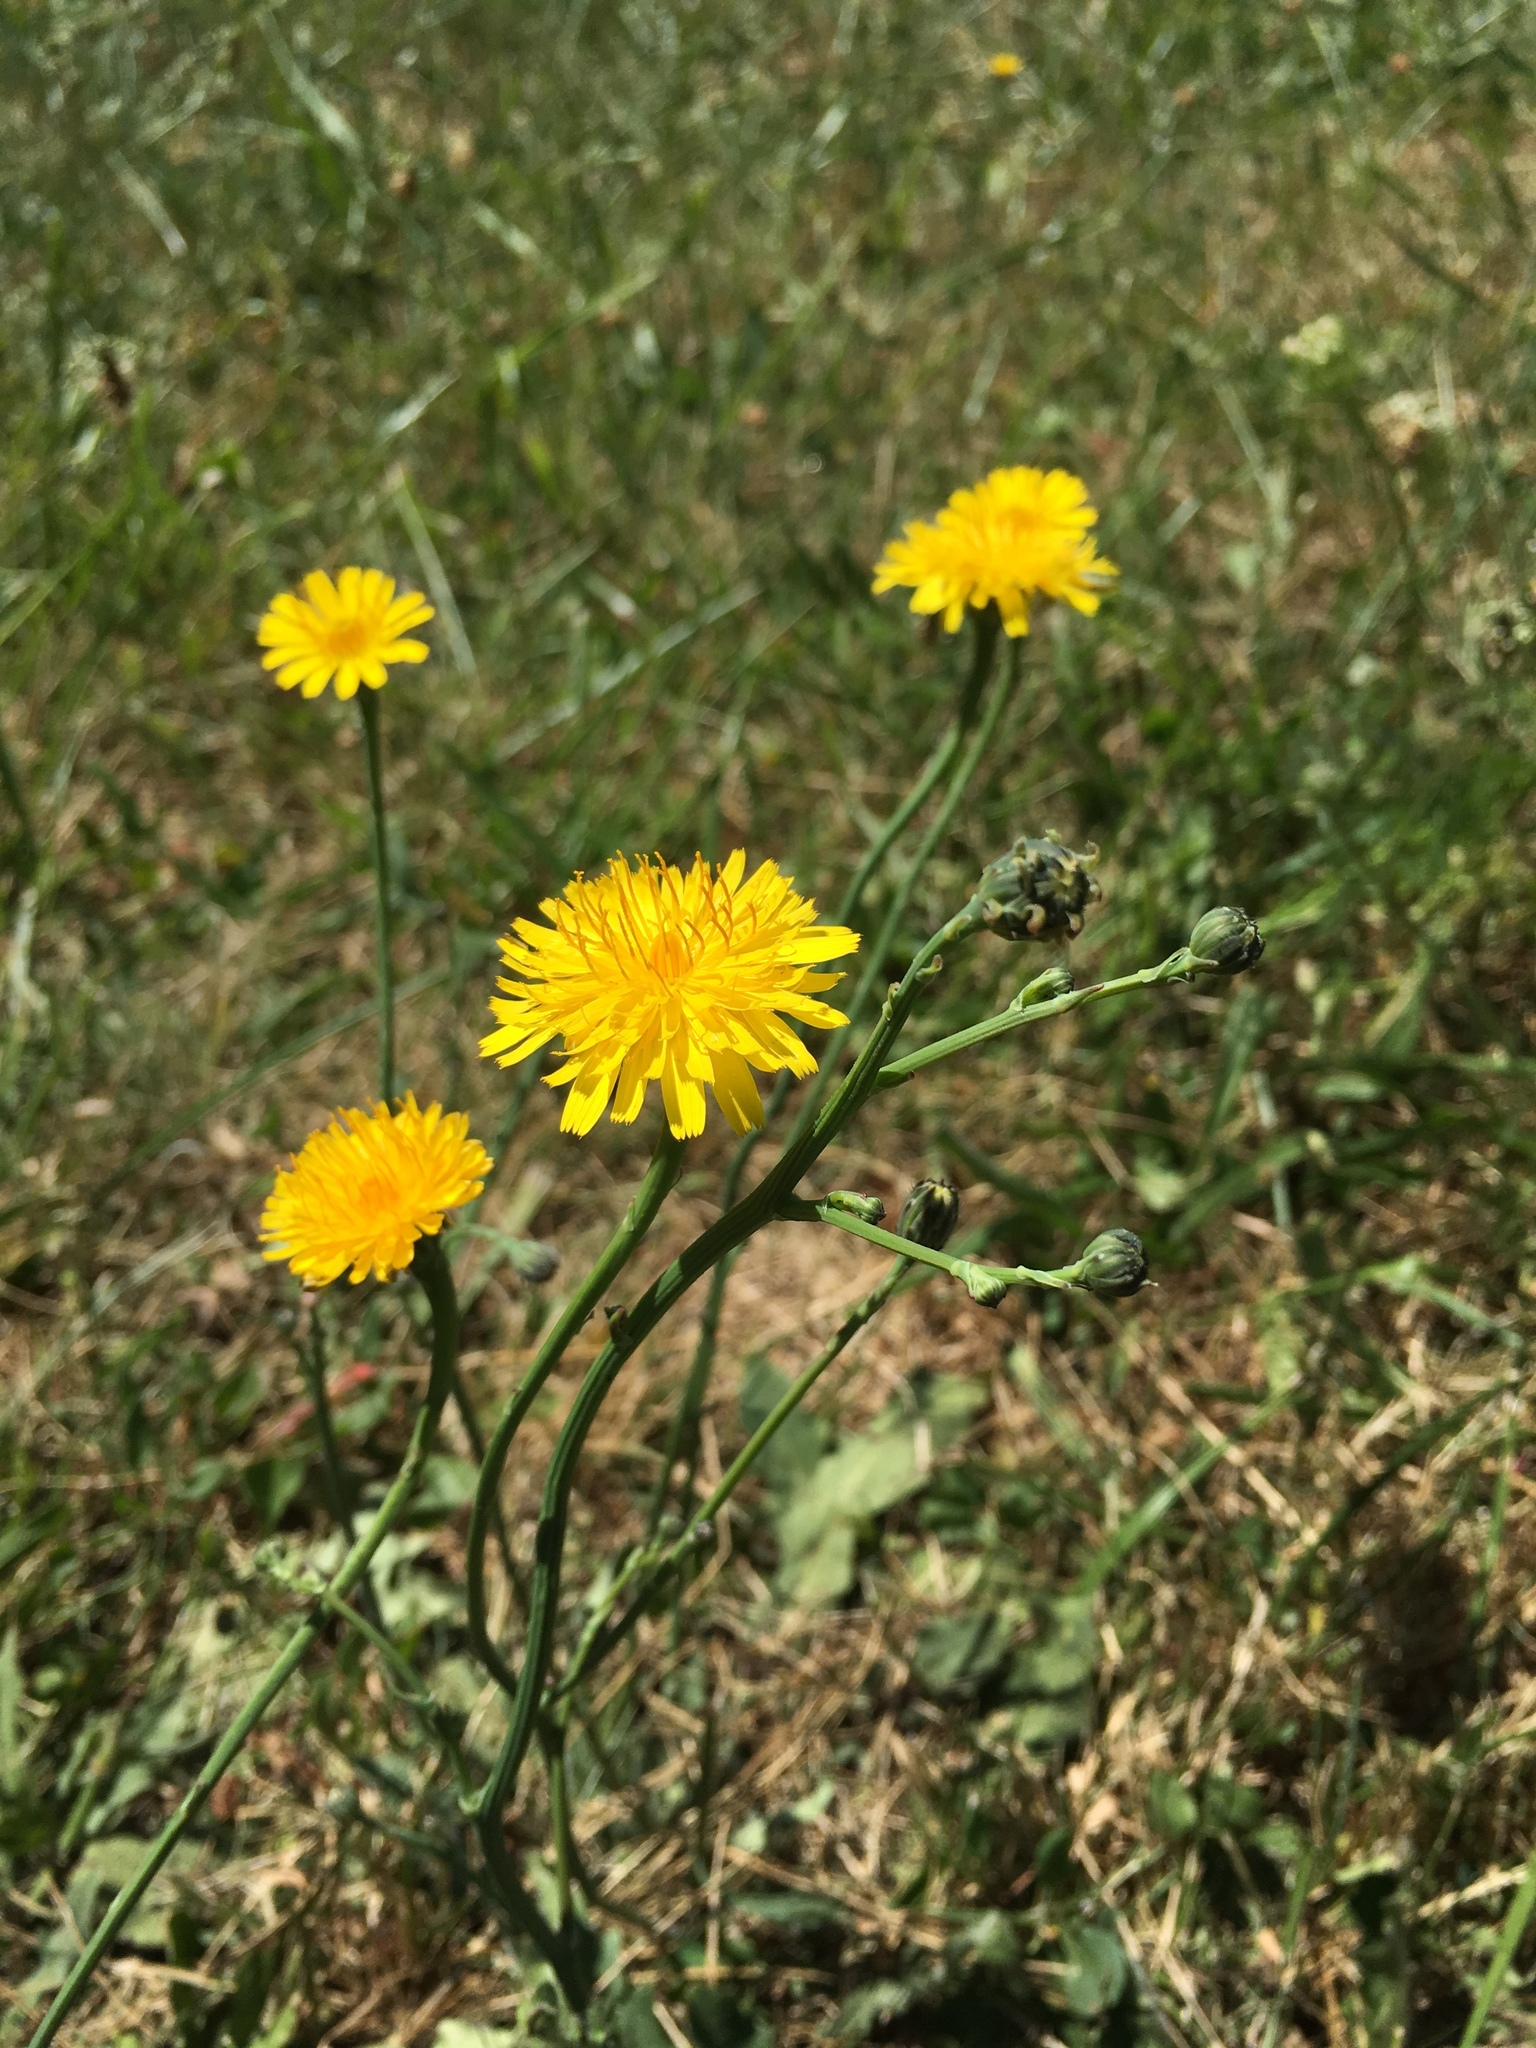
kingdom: Plantae
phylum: Tracheophyta
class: Magnoliopsida
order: Asterales
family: Asteraceae
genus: Hypochaeris
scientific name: Hypochaeris radicata
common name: Flatweed
